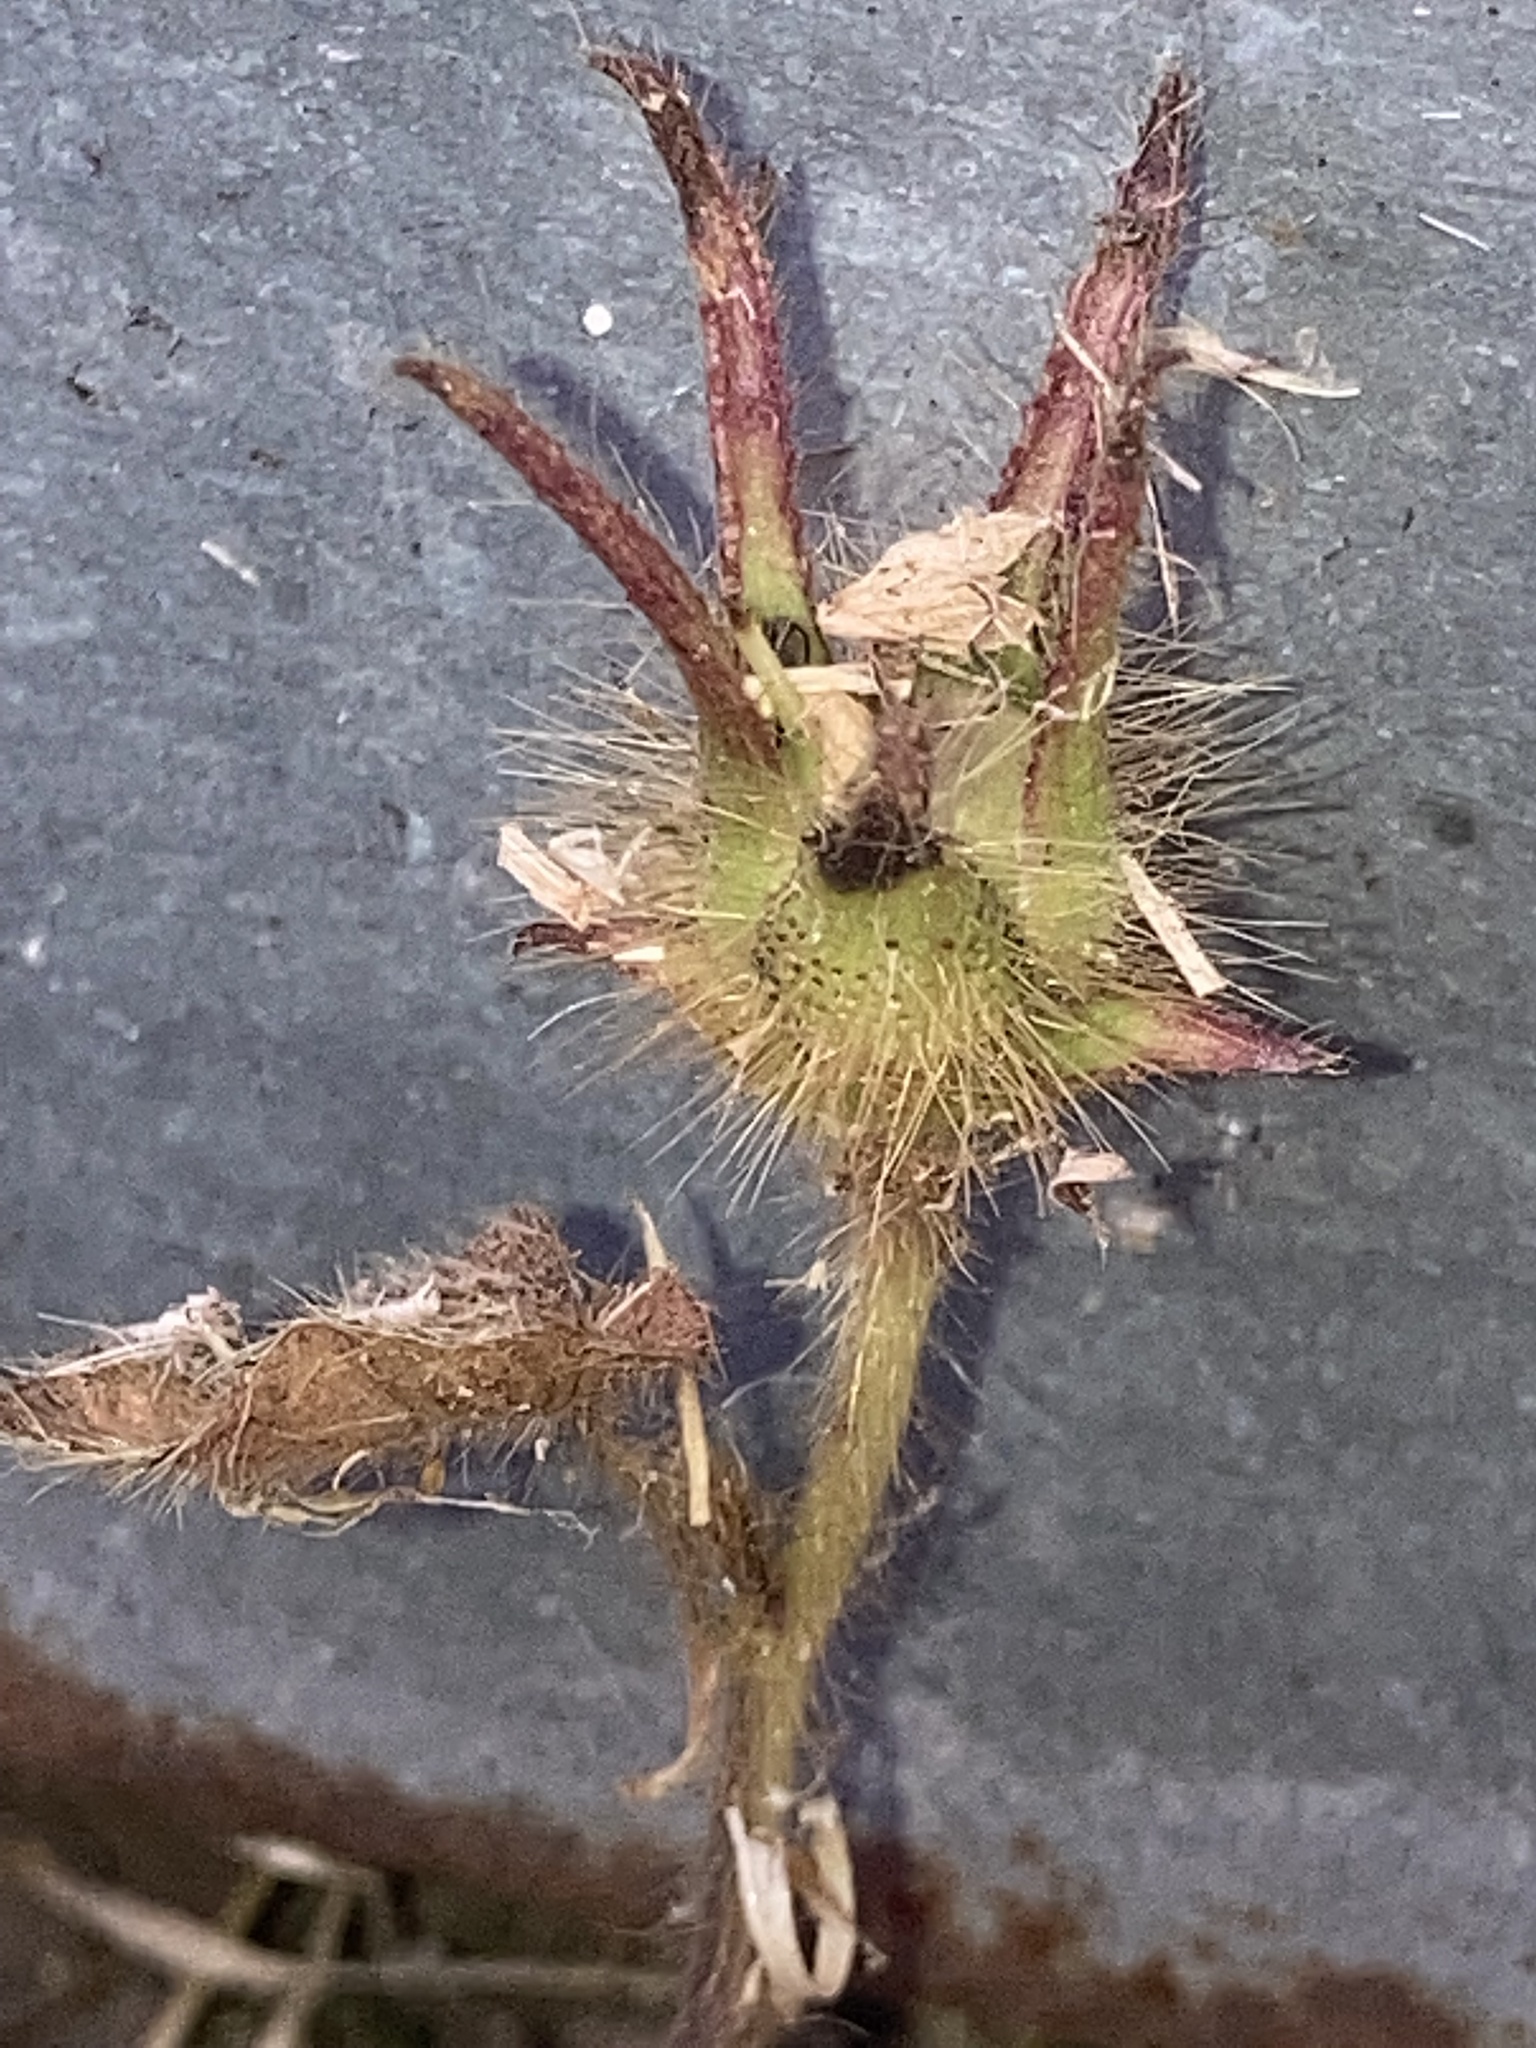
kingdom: Plantae
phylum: Tracheophyta
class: Magnoliopsida
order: Malvales
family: Malvaceae
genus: Anoda
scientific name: Anoda cristata
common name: Spurred anoda
